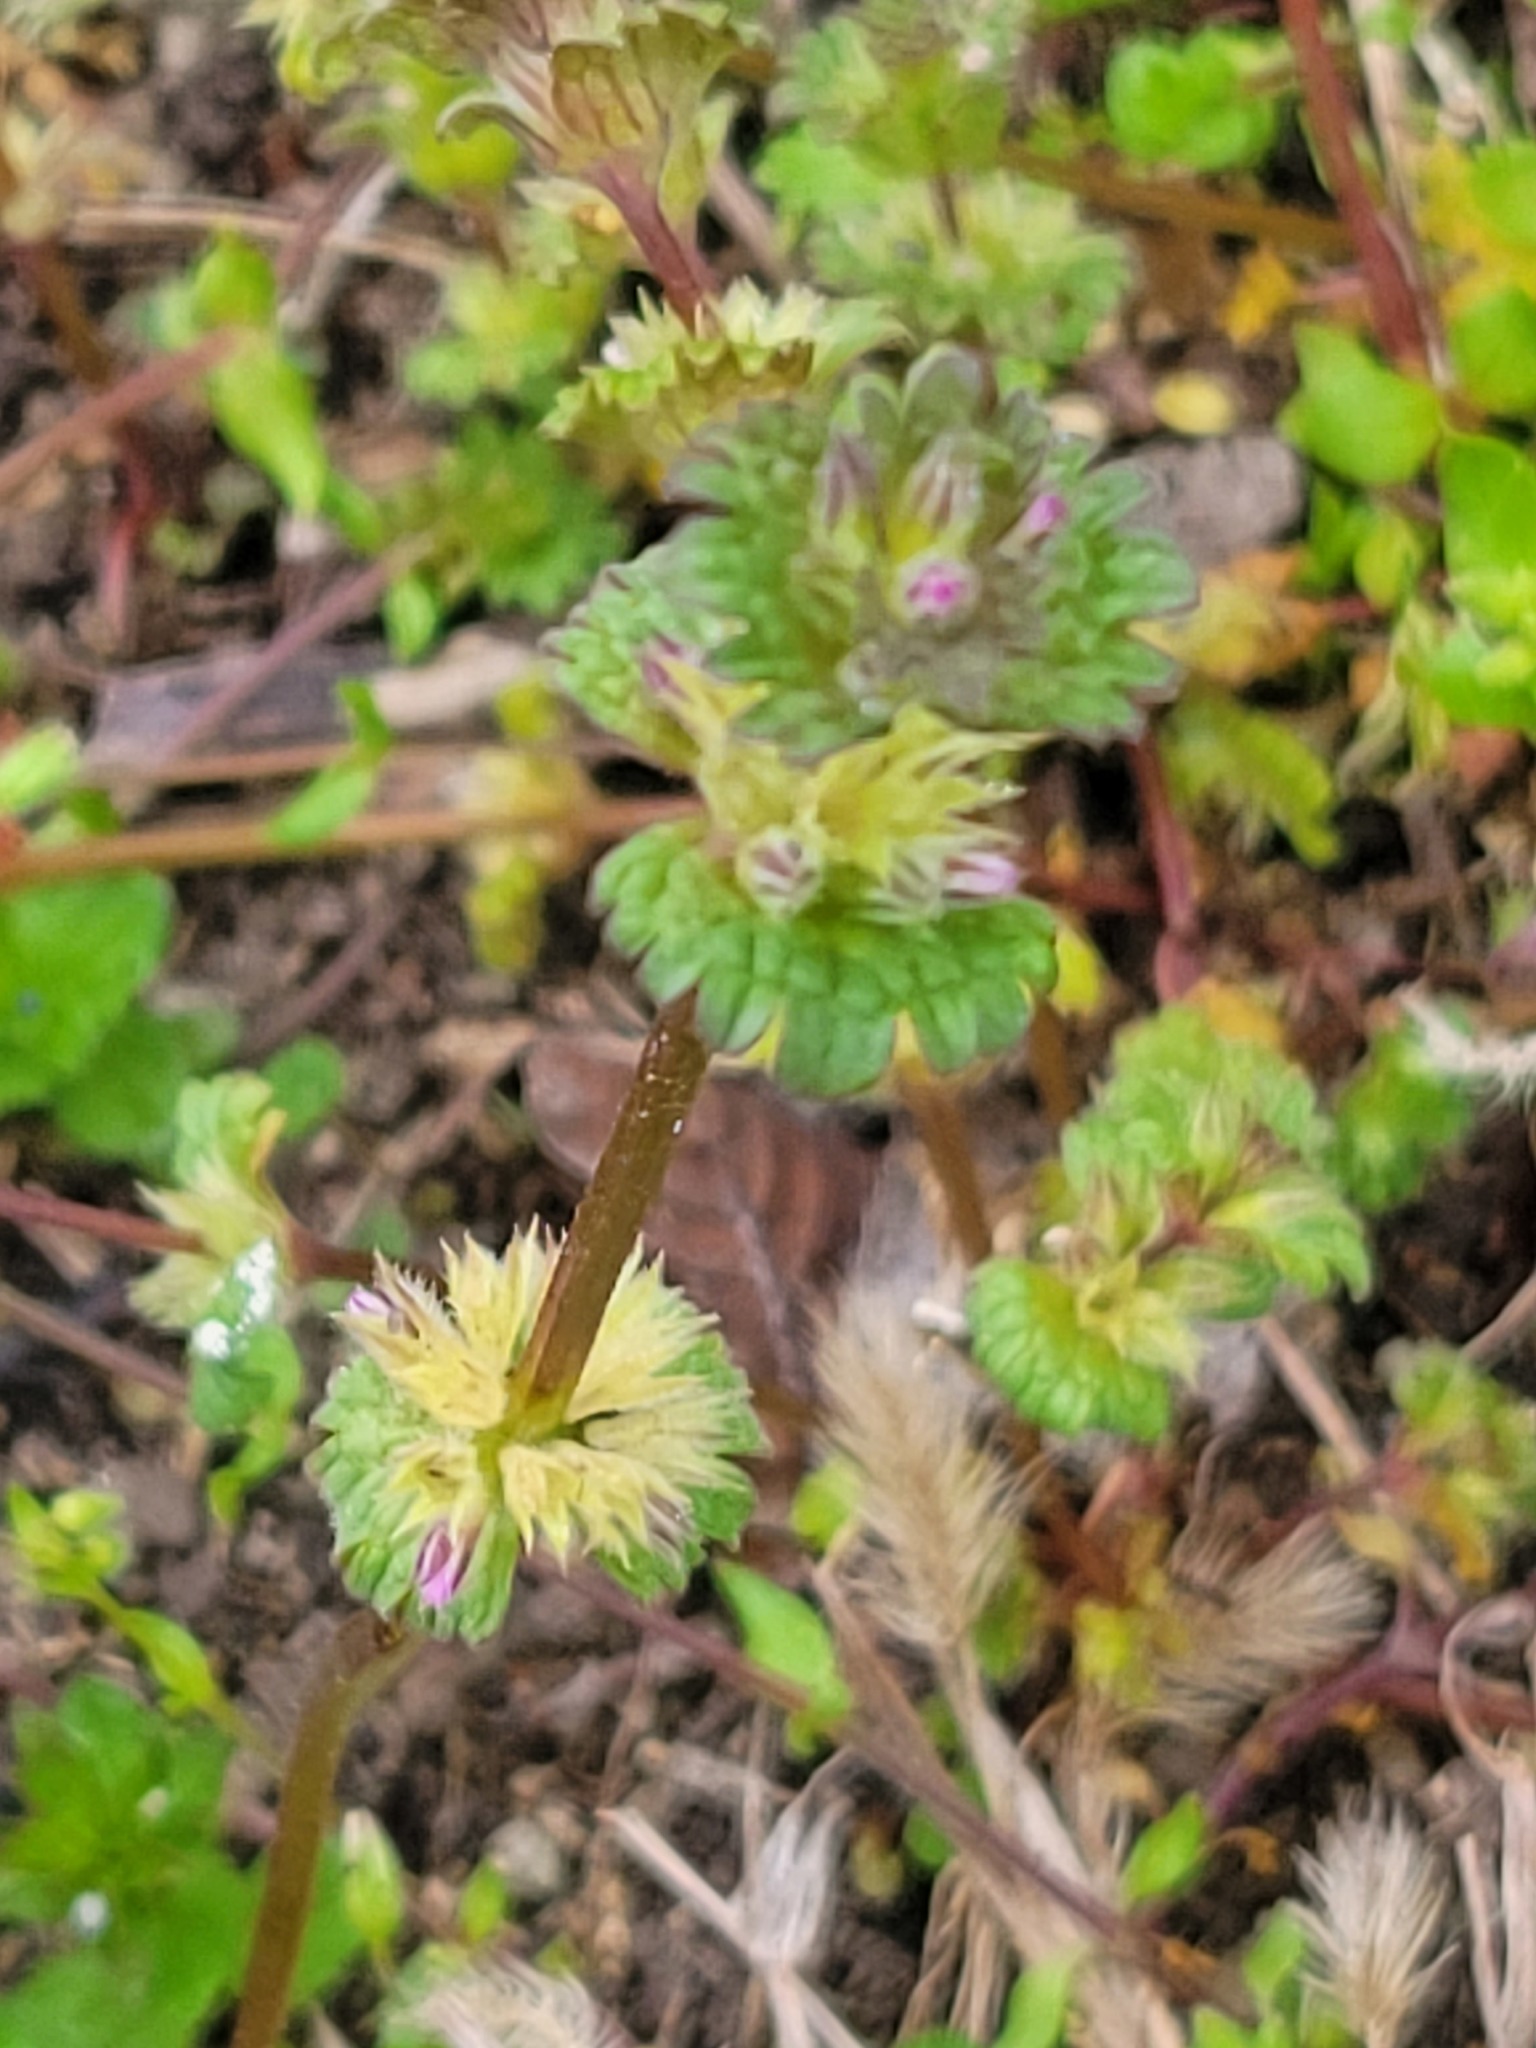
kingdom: Plantae
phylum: Tracheophyta
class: Magnoliopsida
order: Lamiales
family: Lamiaceae
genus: Lamium
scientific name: Lamium purpureum
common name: Red dead-nettle
